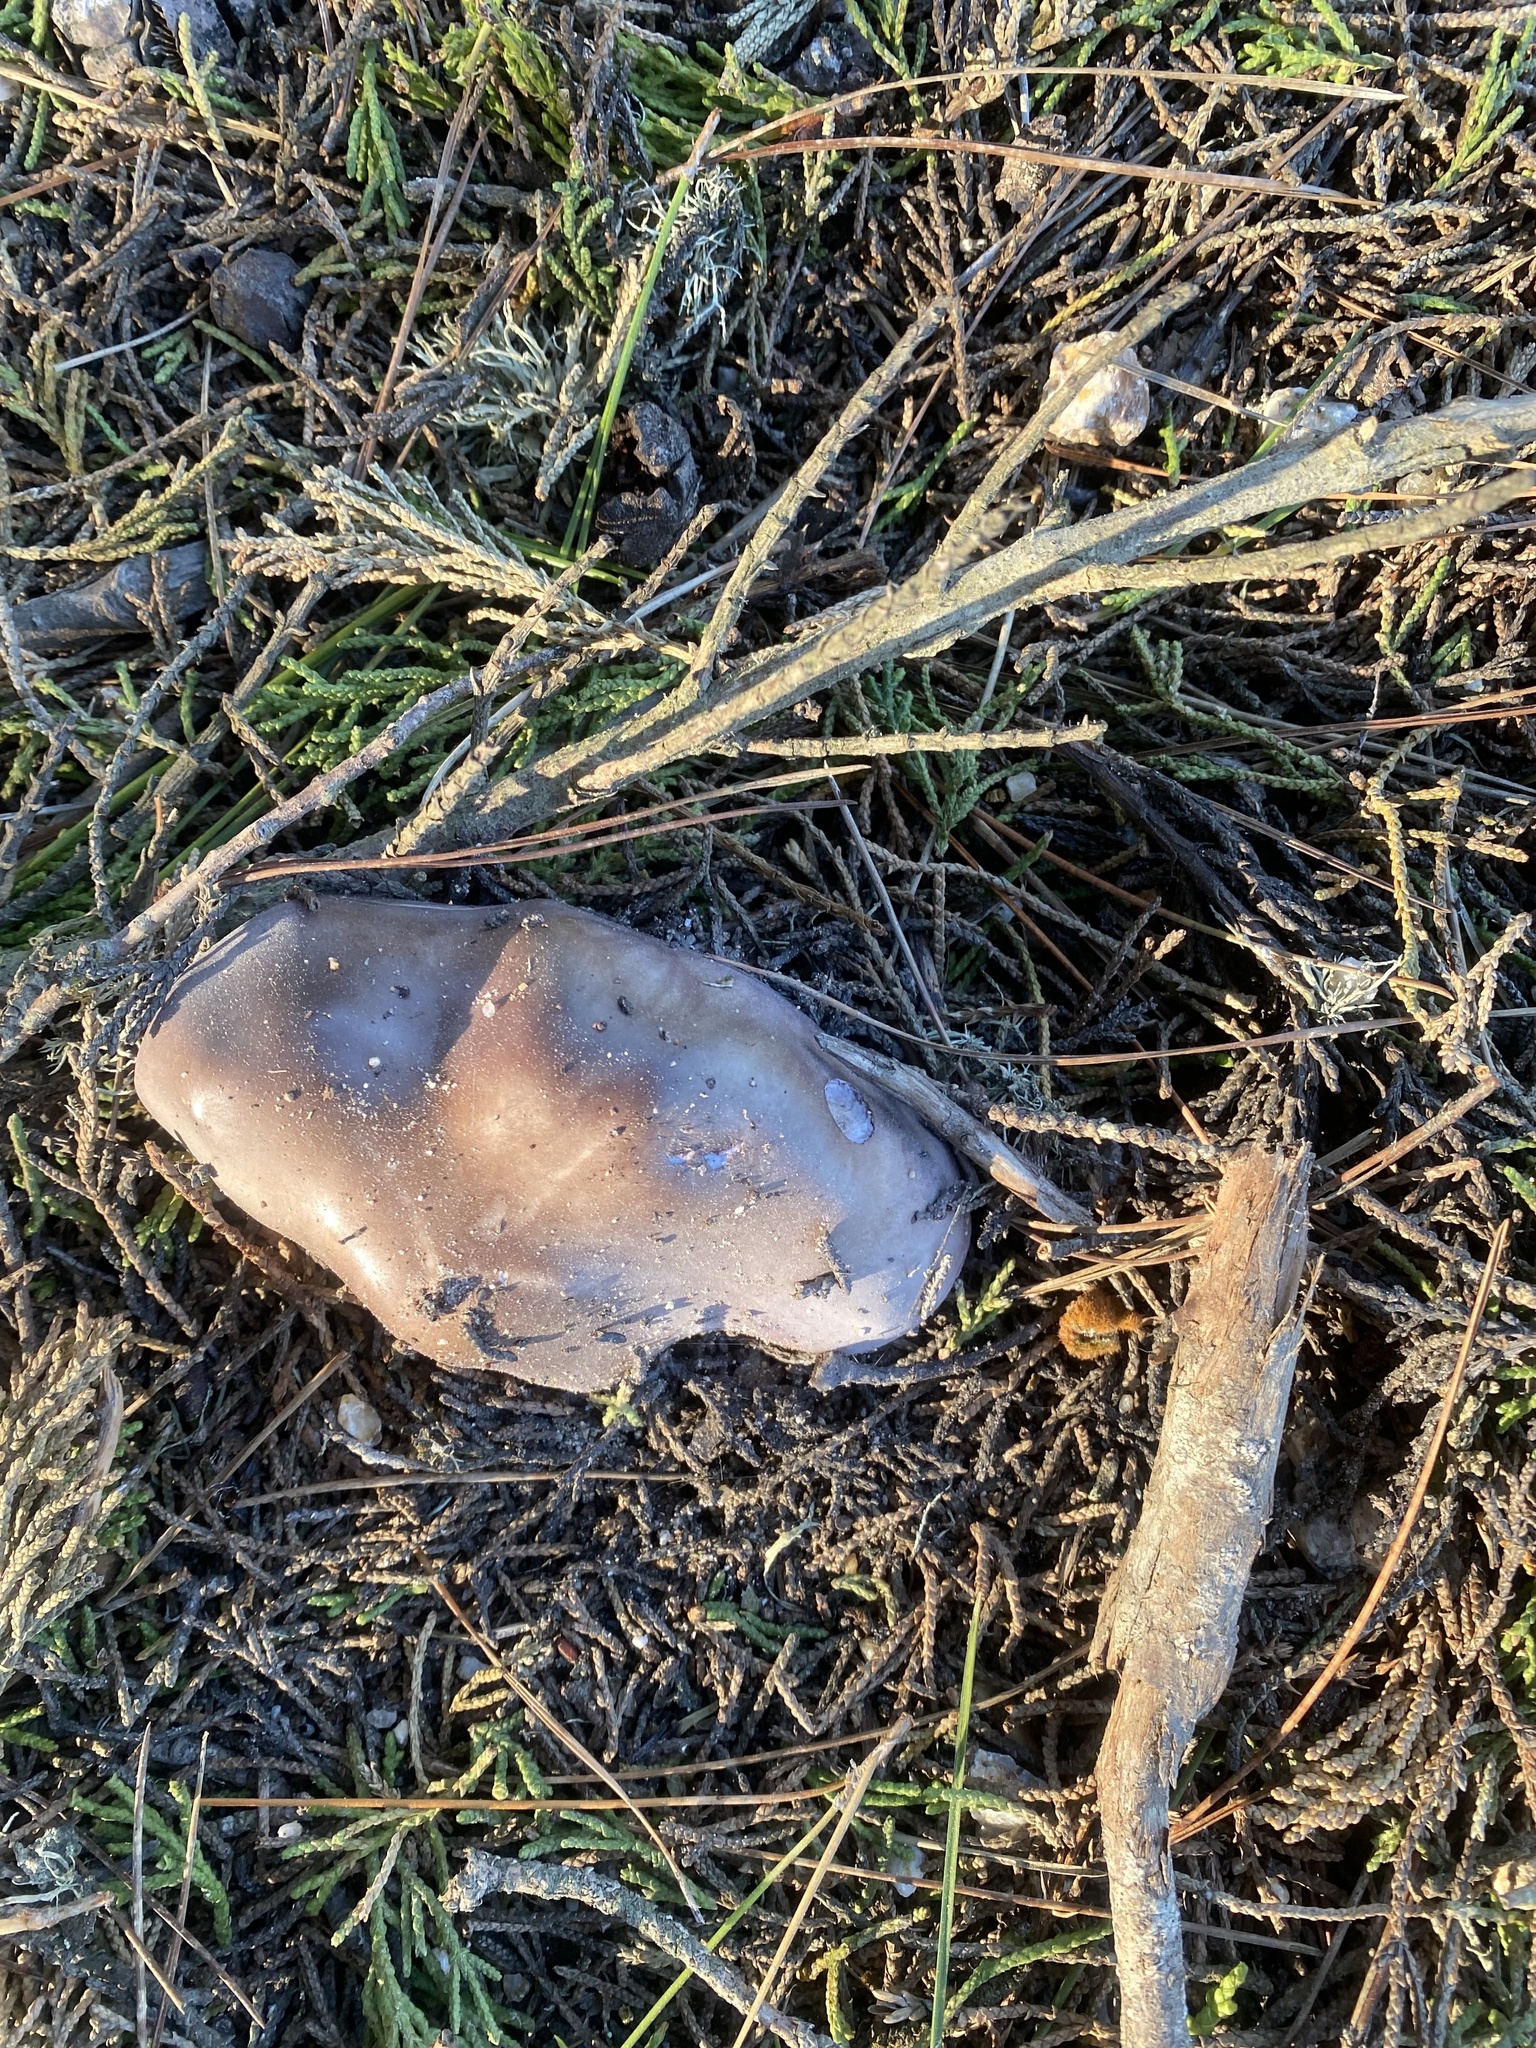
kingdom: Fungi
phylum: Basidiomycota
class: Agaricomycetes
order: Agaricales
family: Tricholomataceae
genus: Collybia
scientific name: Collybia
